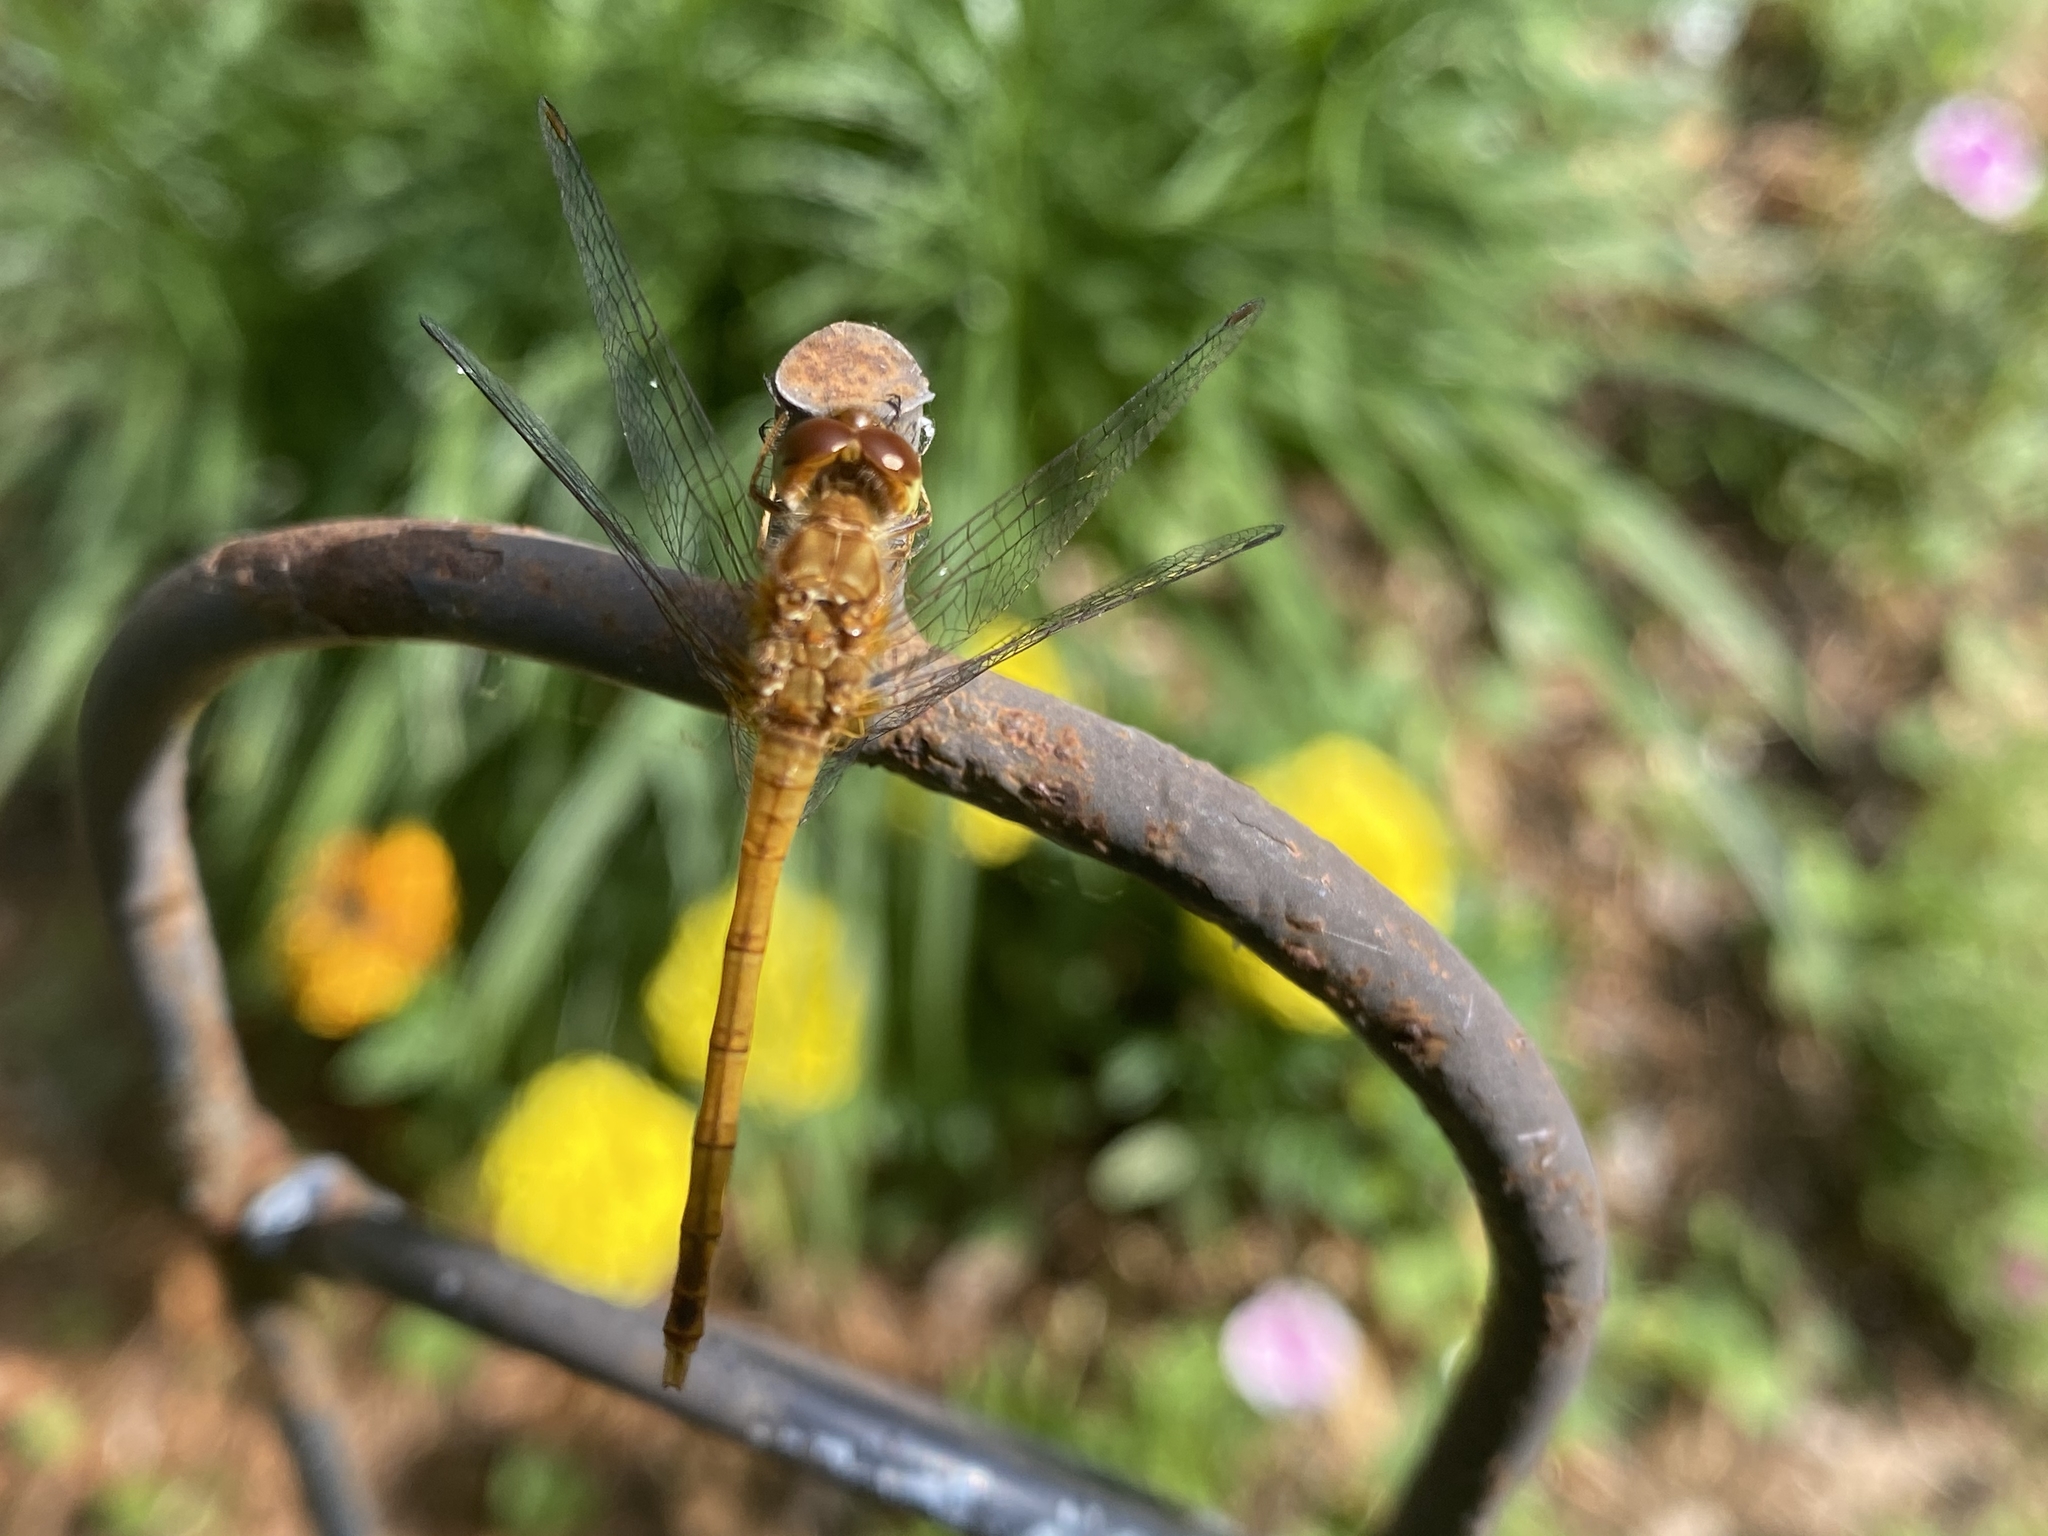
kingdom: Animalia
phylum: Arthropoda
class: Insecta
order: Odonata
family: Libellulidae
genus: Sympetrum
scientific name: Sympetrum vicinum
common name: Autumn meadowhawk
